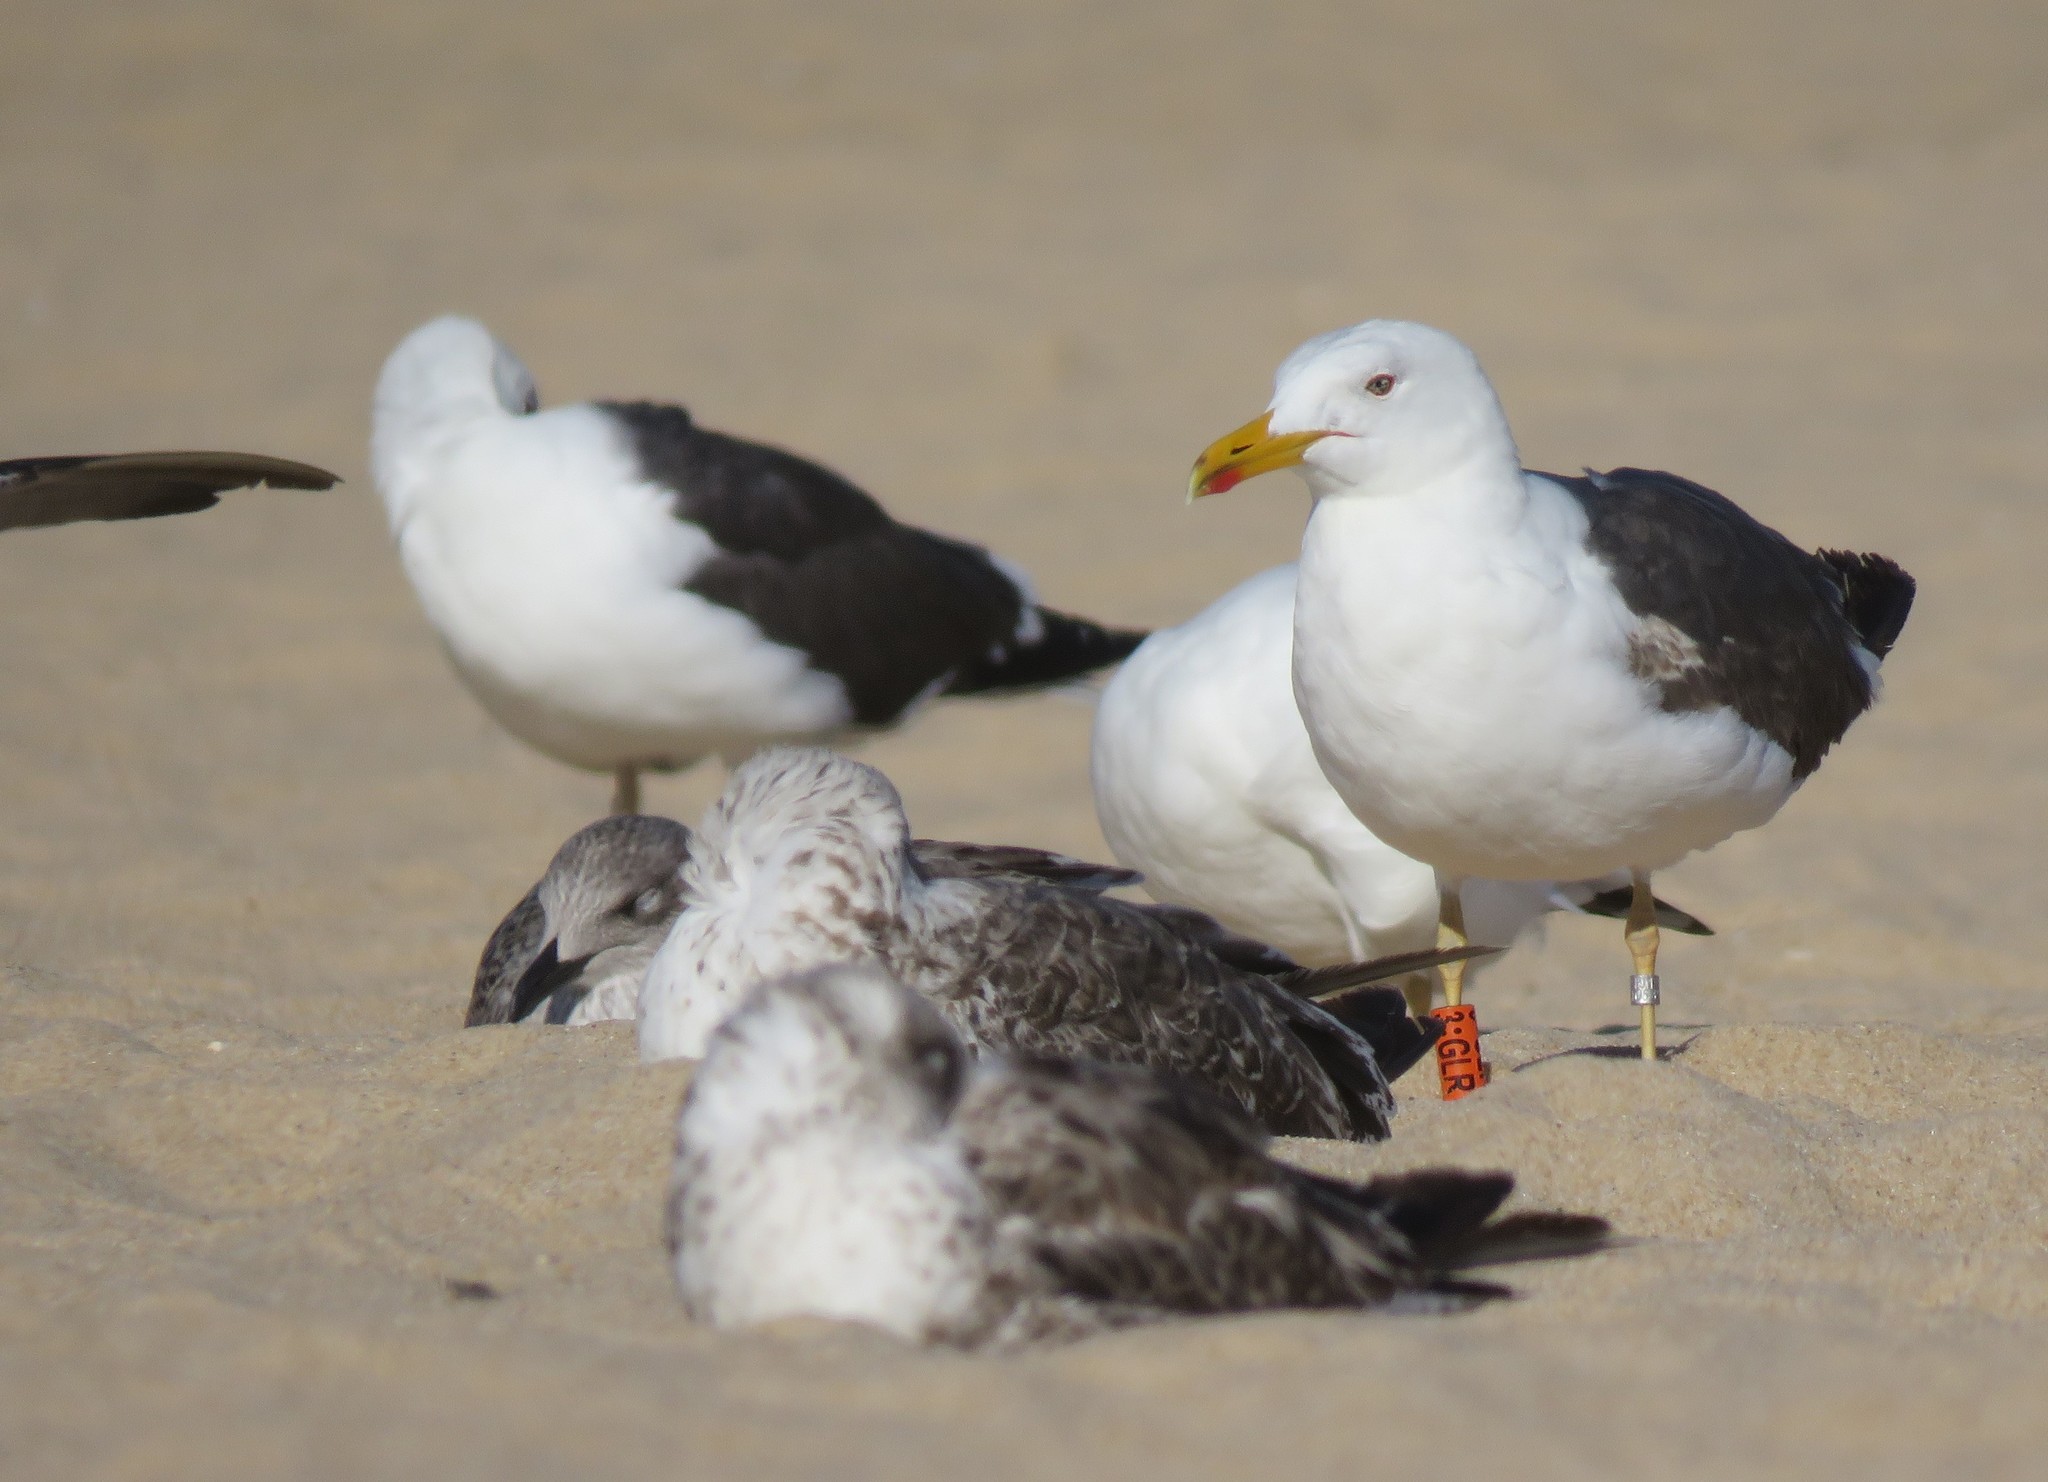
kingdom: Animalia
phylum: Chordata
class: Aves
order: Charadriiformes
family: Laridae
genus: Larus
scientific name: Larus fuscus
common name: Lesser black-backed gull
